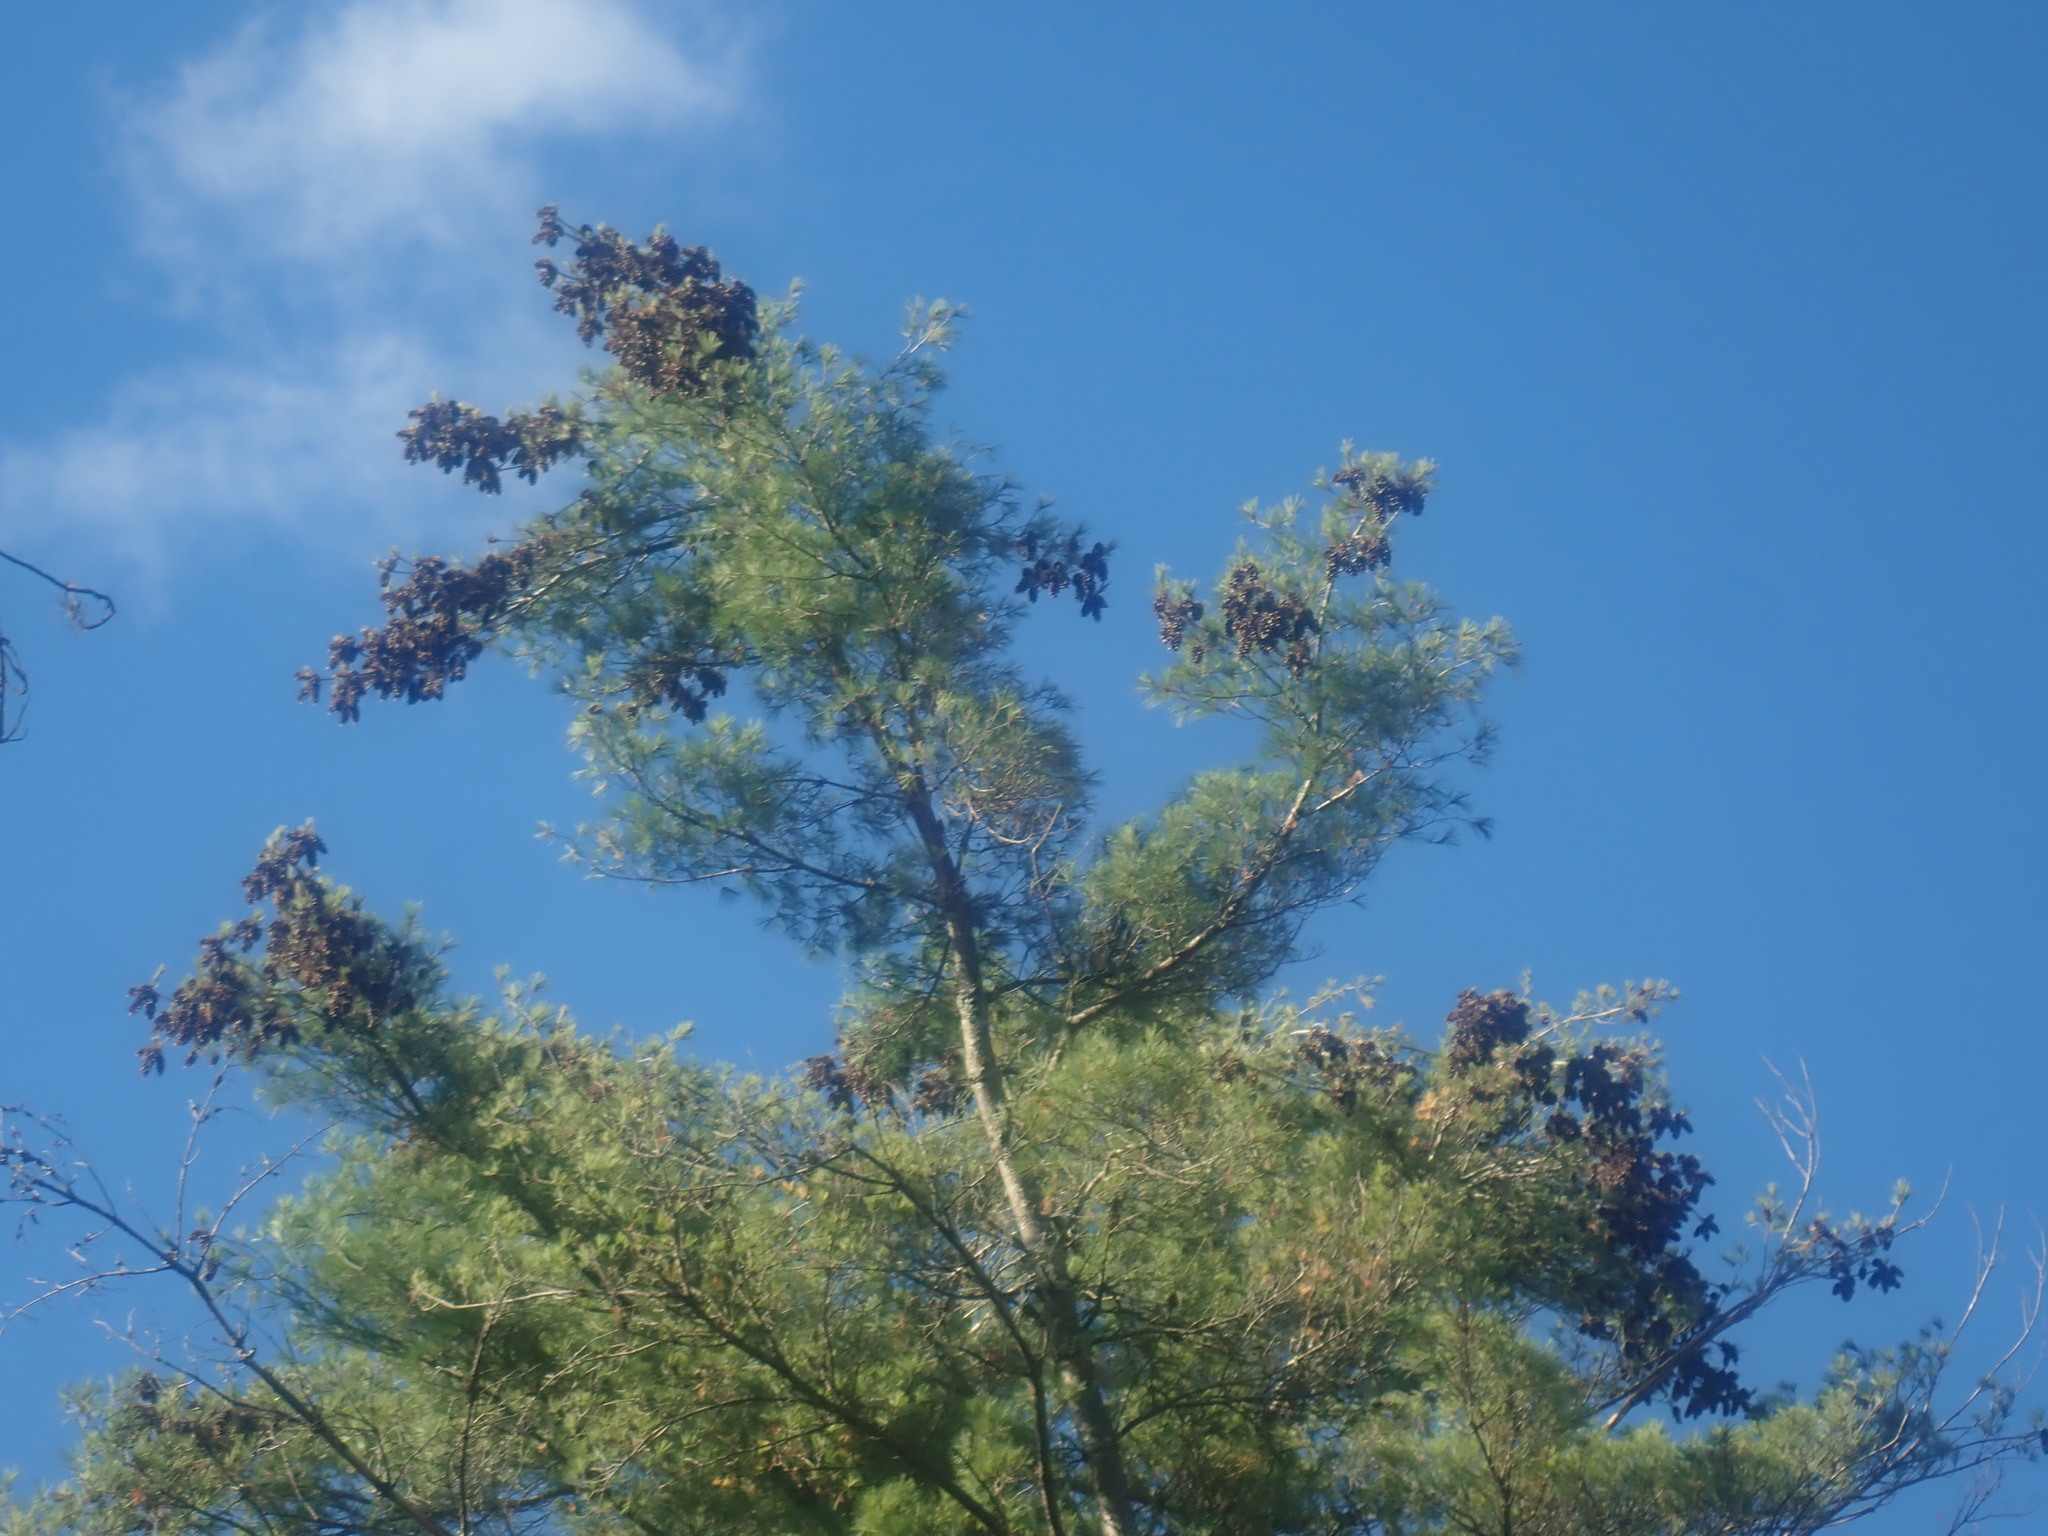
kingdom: Plantae
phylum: Tracheophyta
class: Pinopsida
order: Pinales
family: Pinaceae
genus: Pinus
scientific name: Pinus strobus
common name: Weymouth pine
